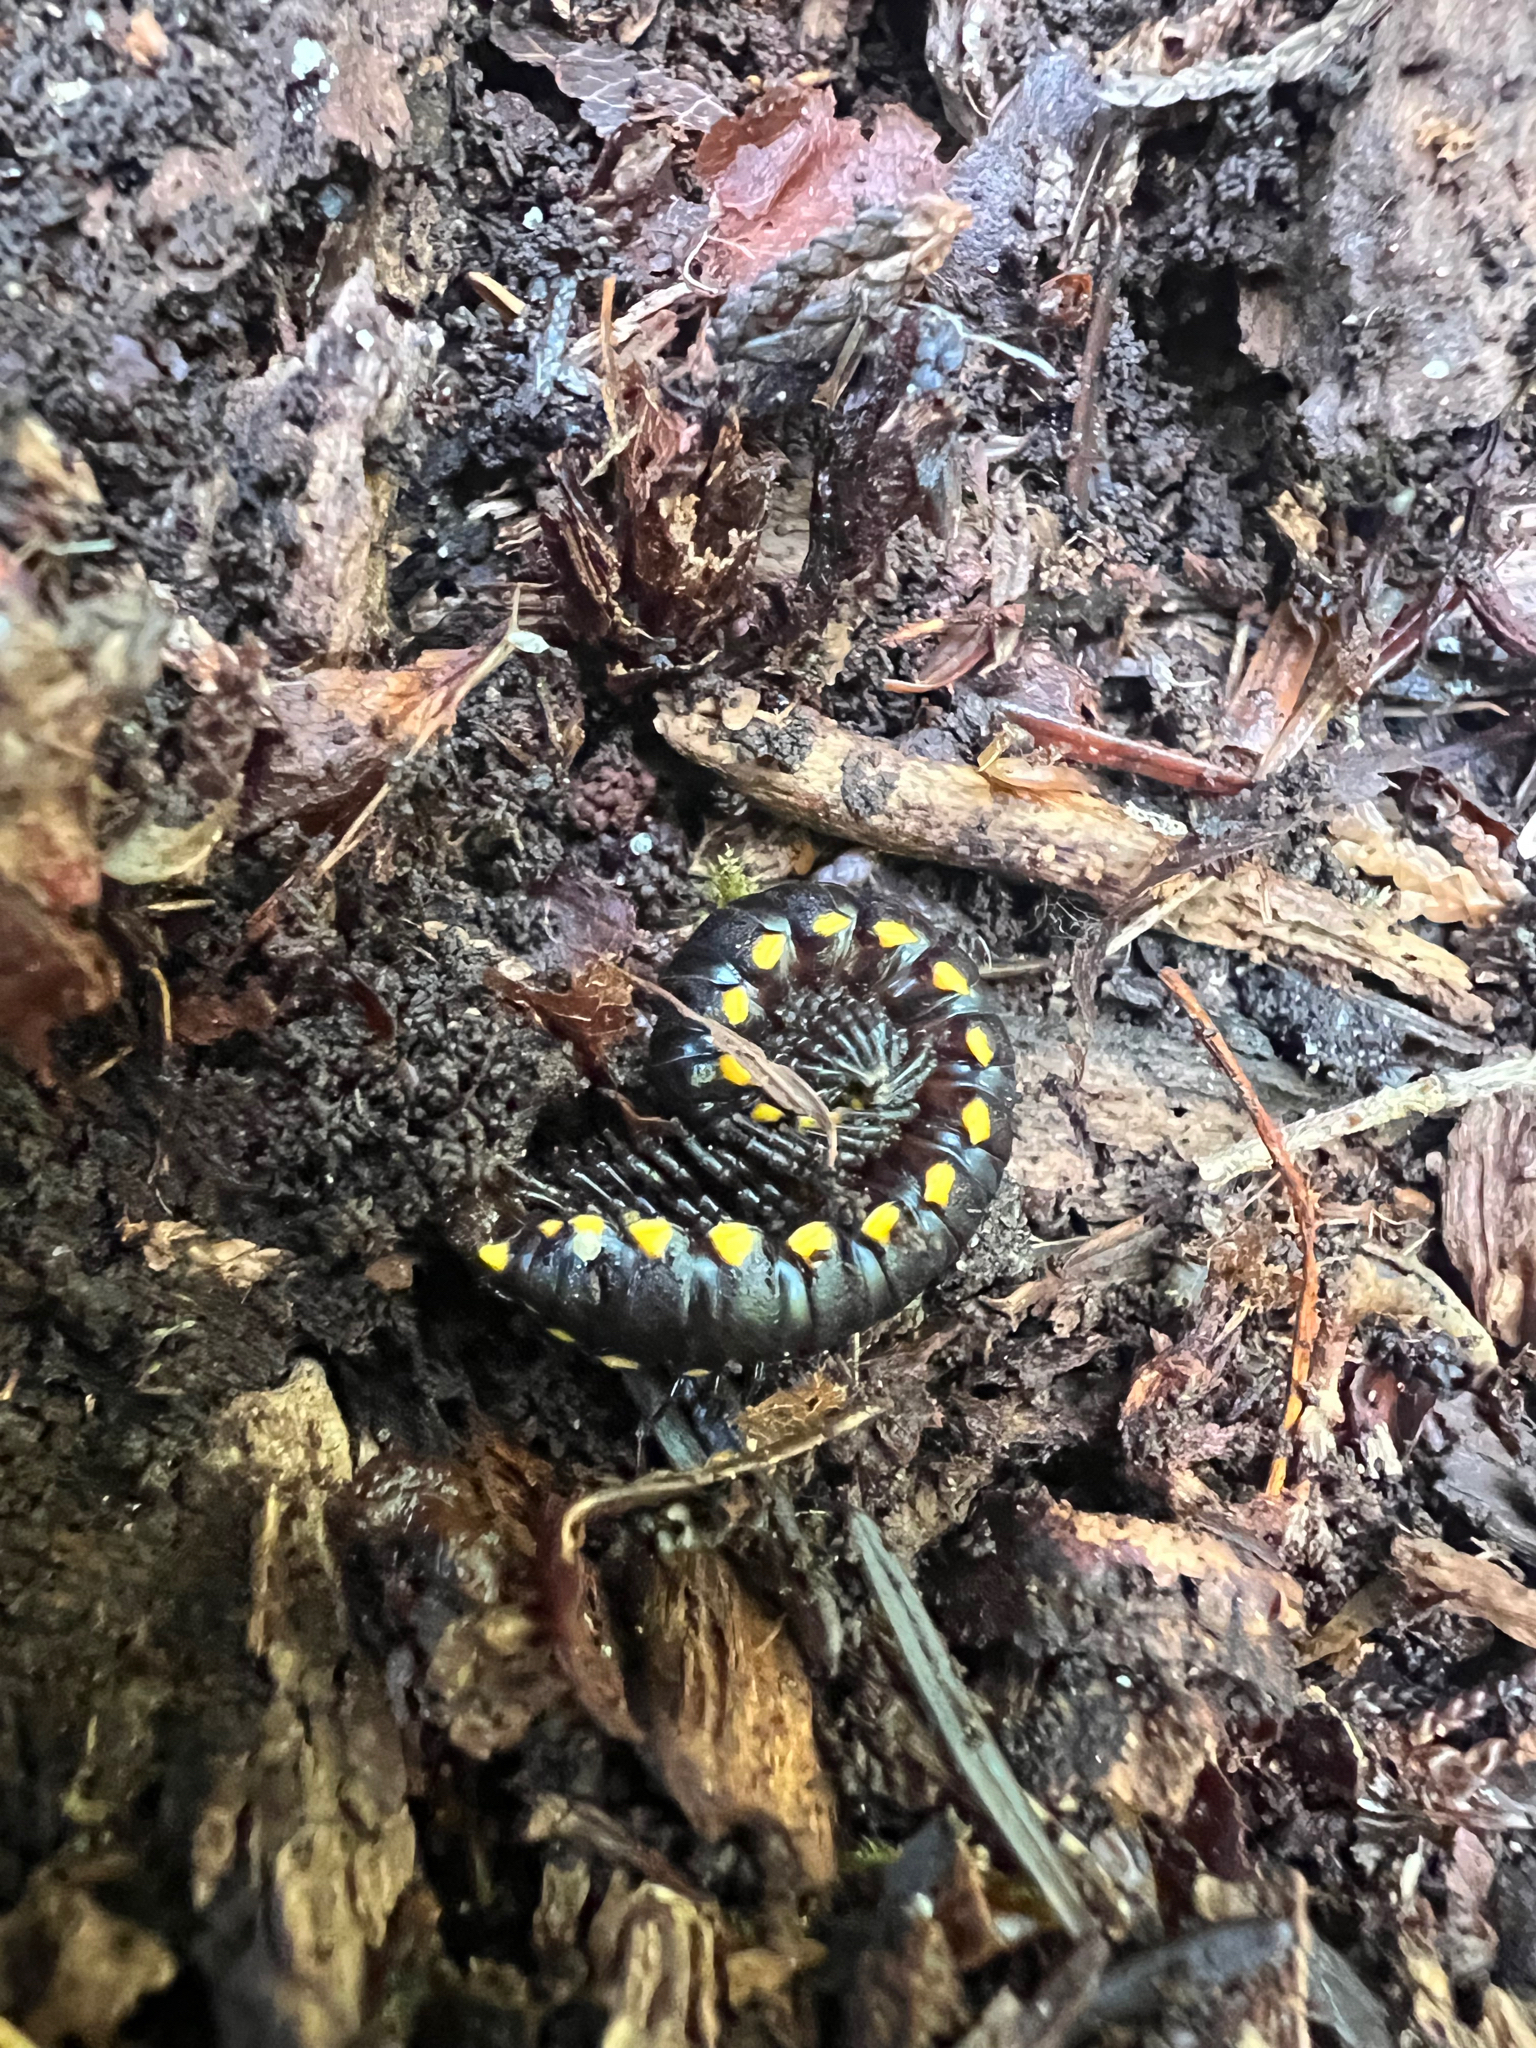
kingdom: Animalia
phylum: Arthropoda
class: Diplopoda
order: Polydesmida
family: Xystodesmidae
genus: Harpaphe
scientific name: Harpaphe haydeniana
